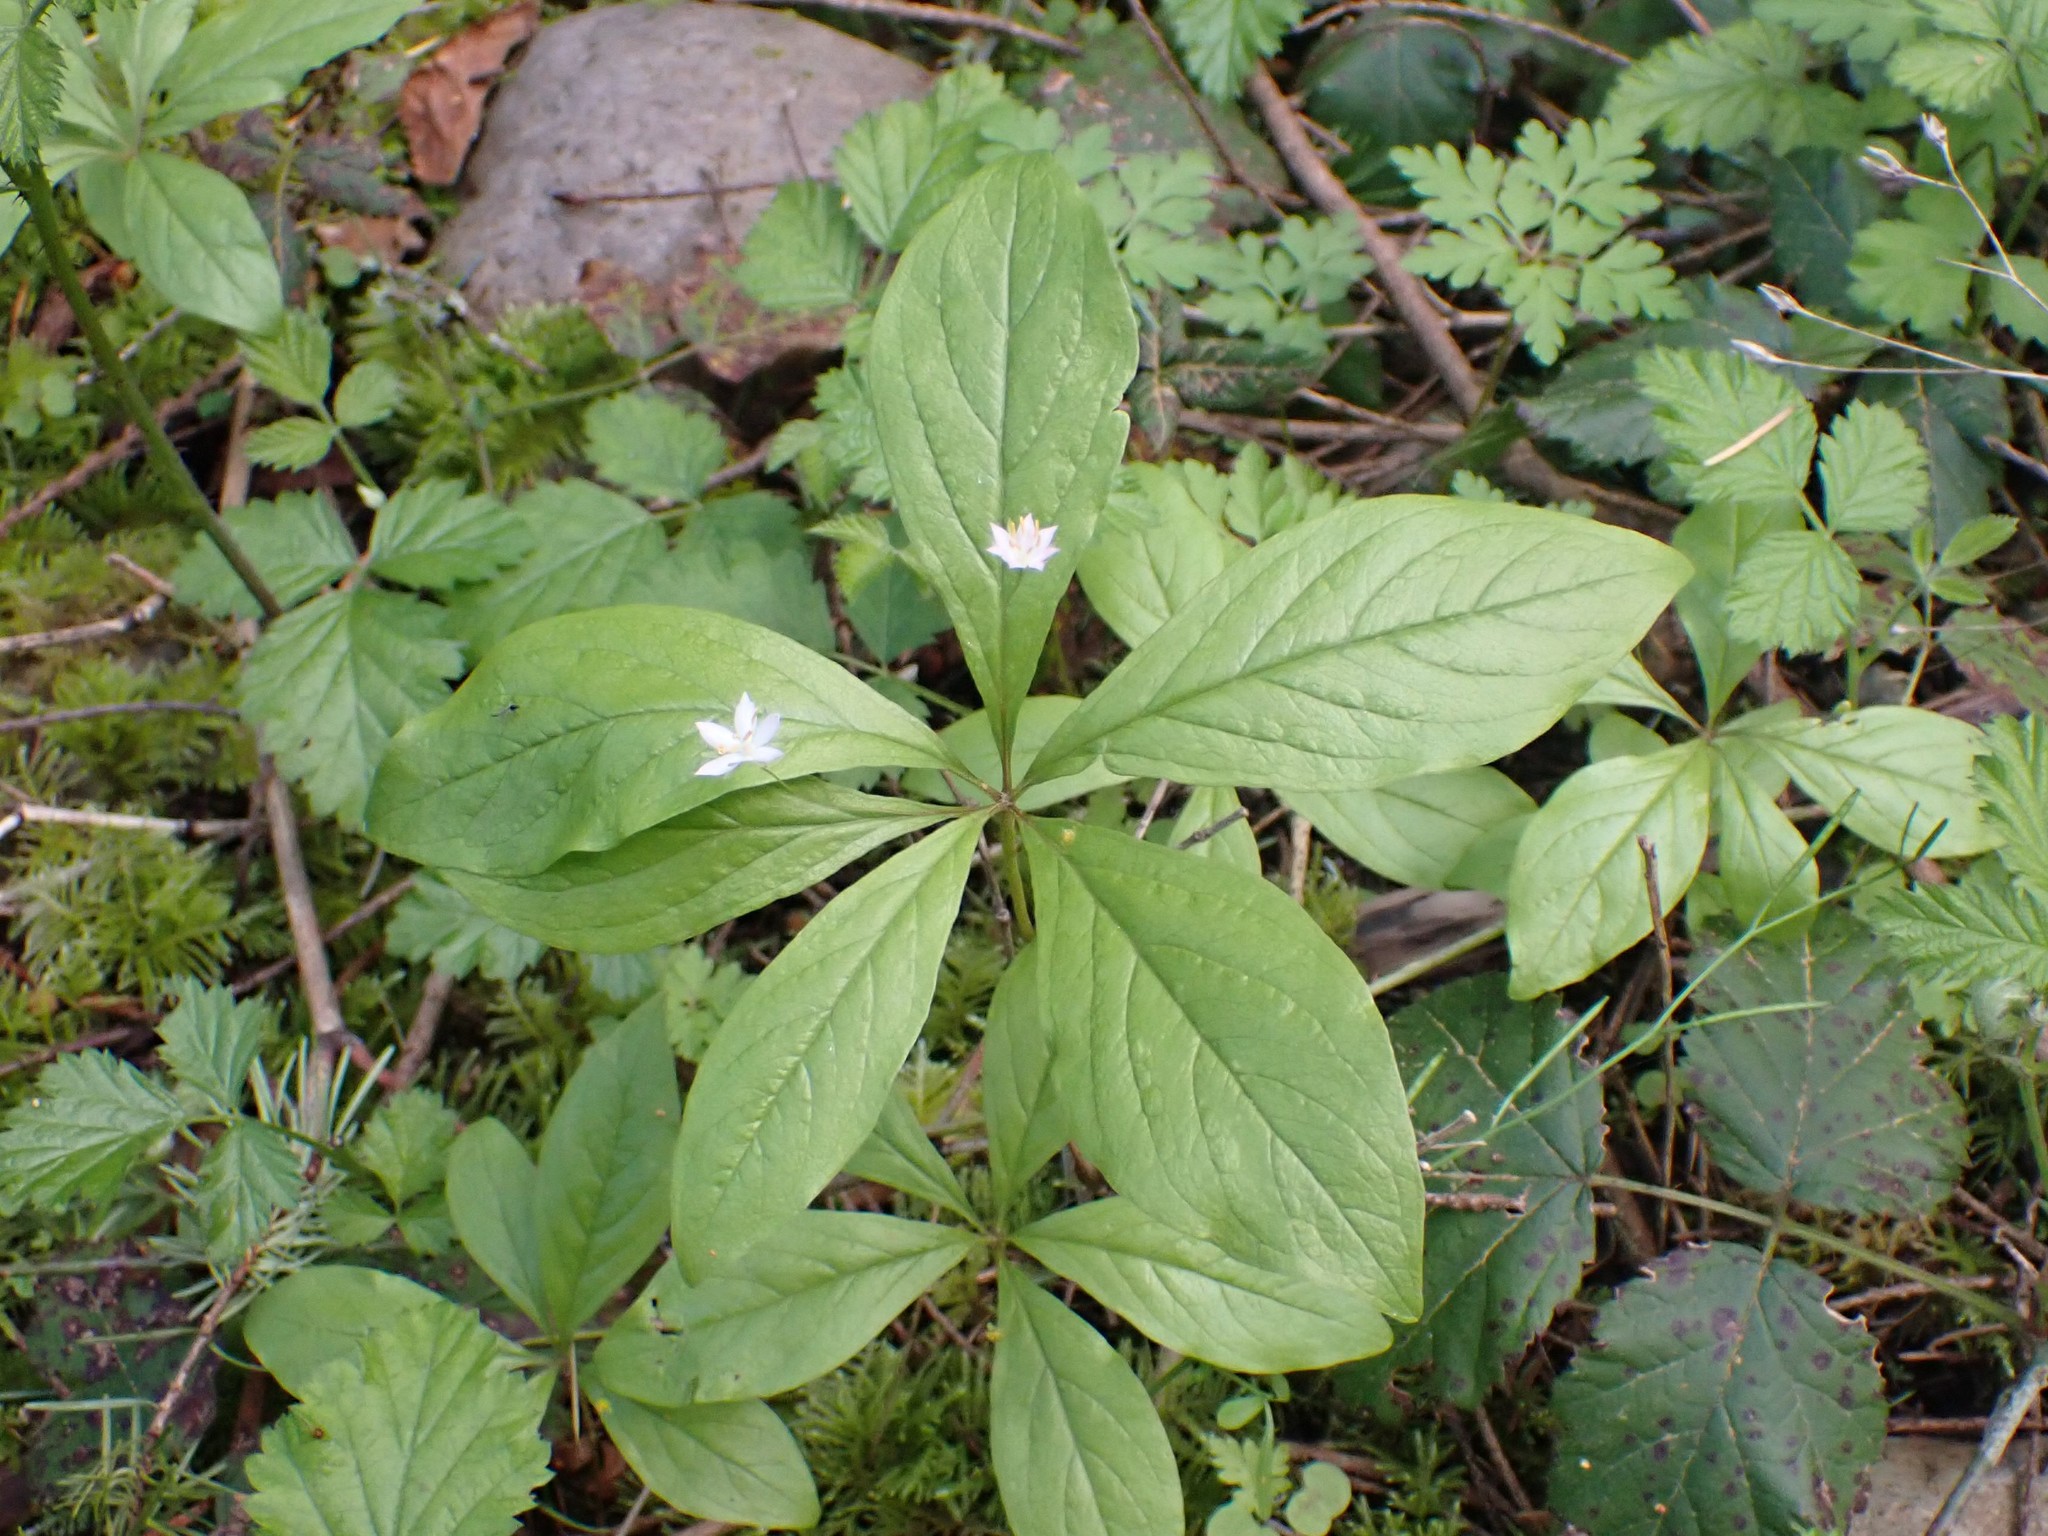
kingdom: Plantae
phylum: Tracheophyta
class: Magnoliopsida
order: Ericales
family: Primulaceae
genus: Lysimachia
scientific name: Lysimachia latifolia
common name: Pacific starflower
